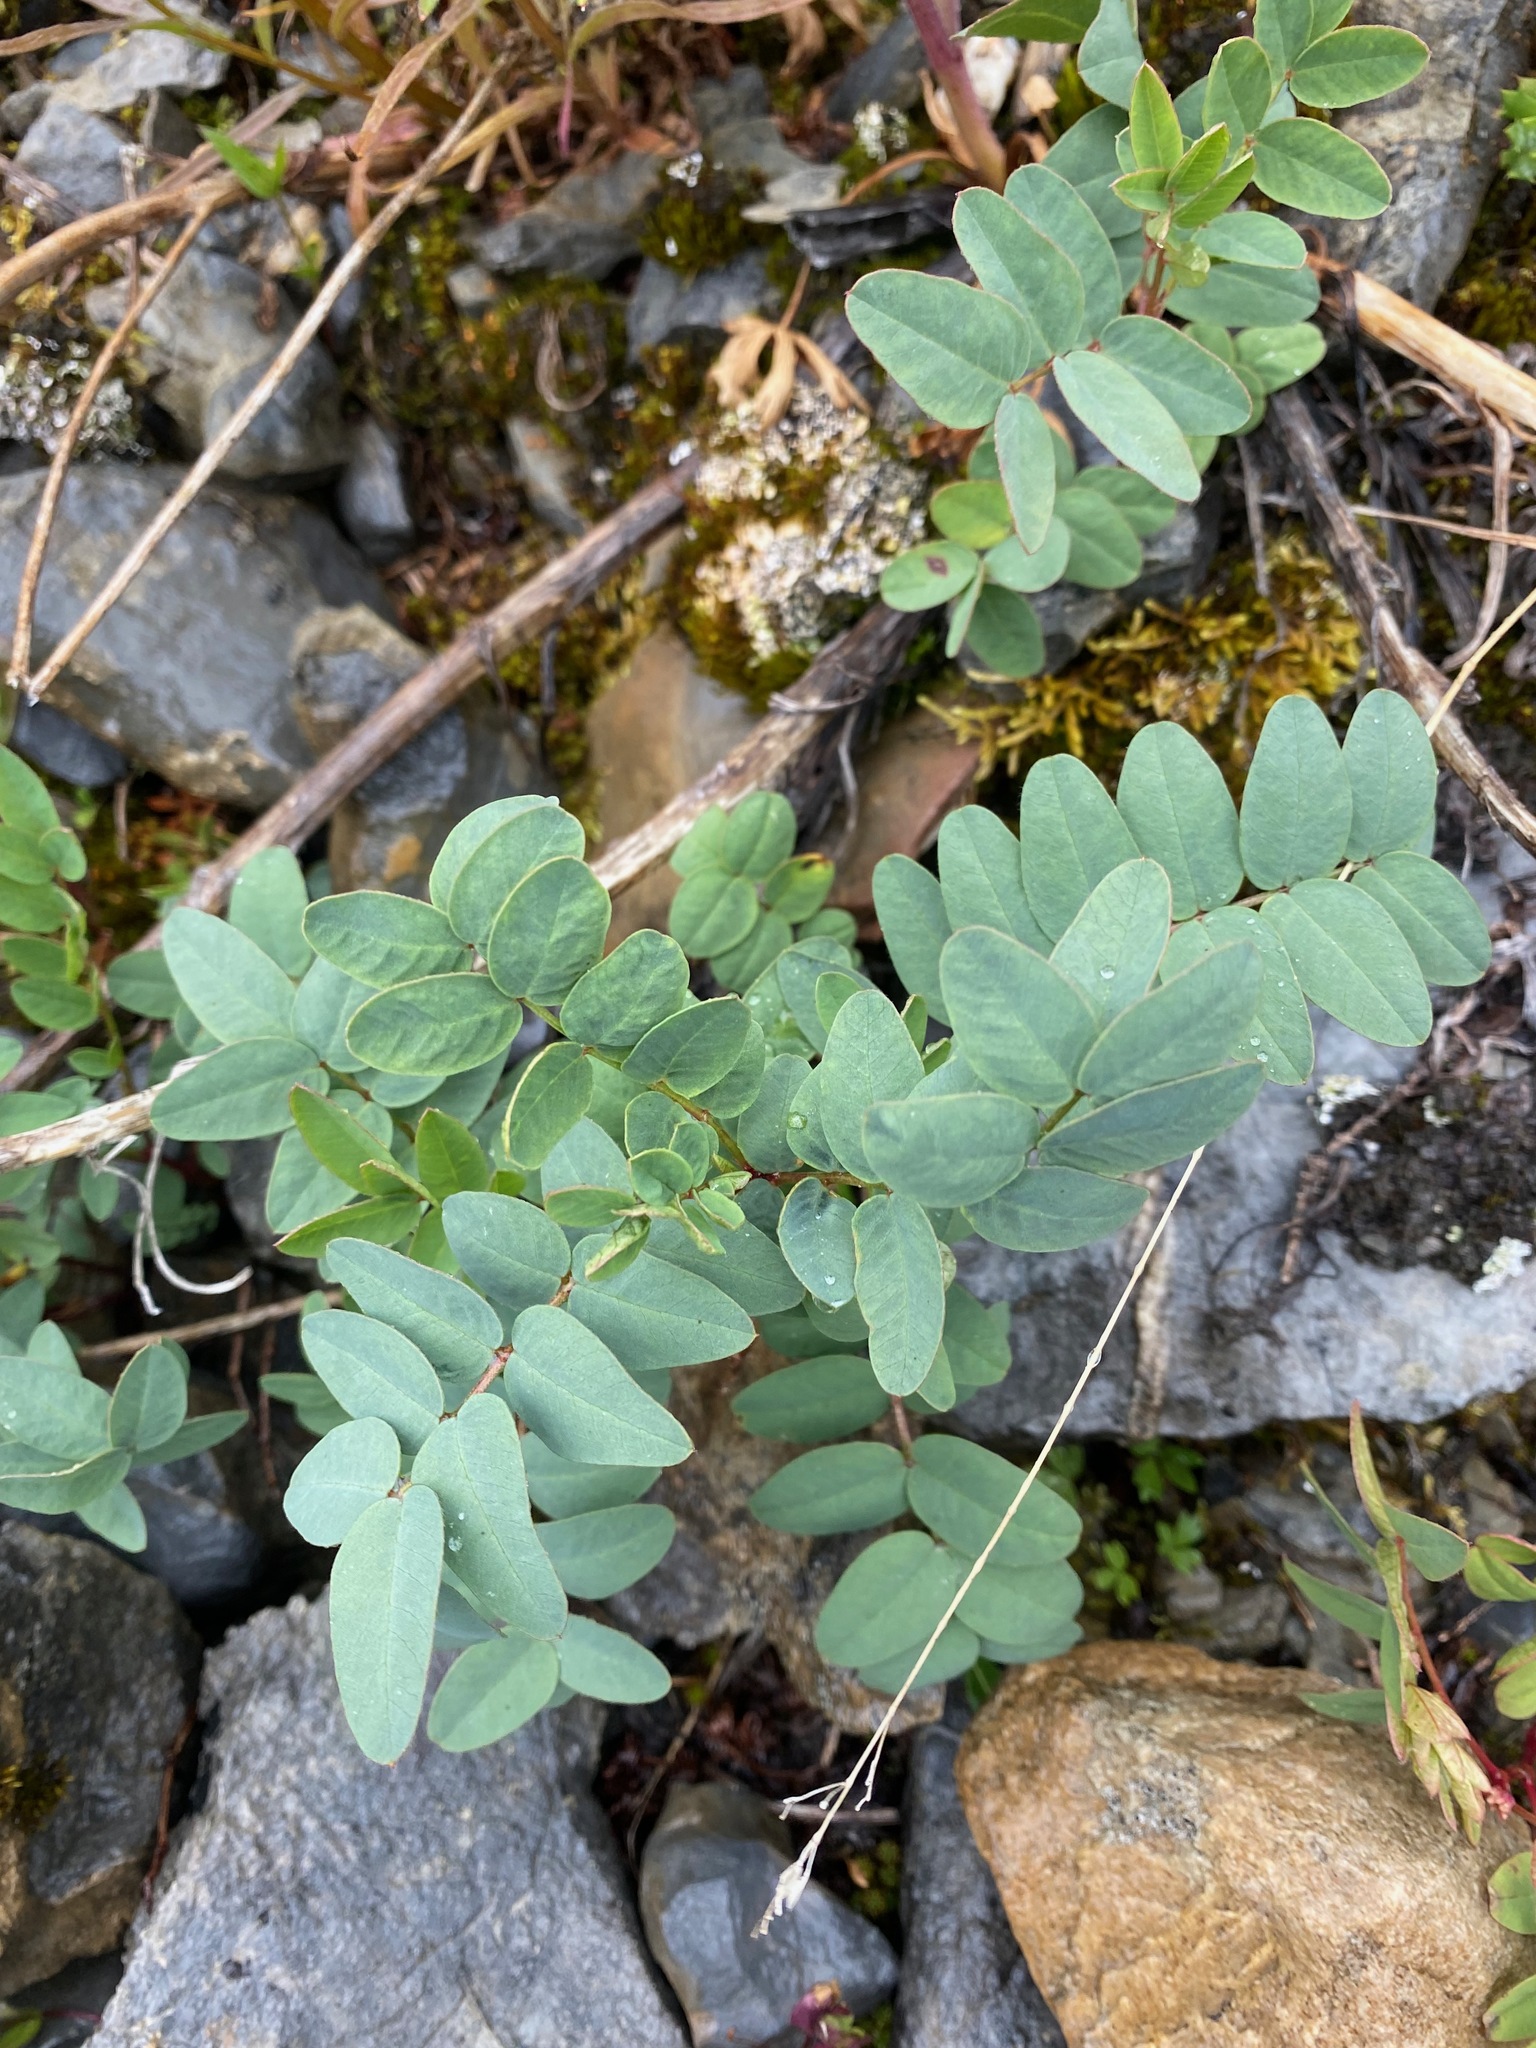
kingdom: Plantae
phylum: Tracheophyta
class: Magnoliopsida
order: Fabales
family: Fabaceae
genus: Hedysarum
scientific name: Hedysarum alpinum
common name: Alpine sweet-vetch
